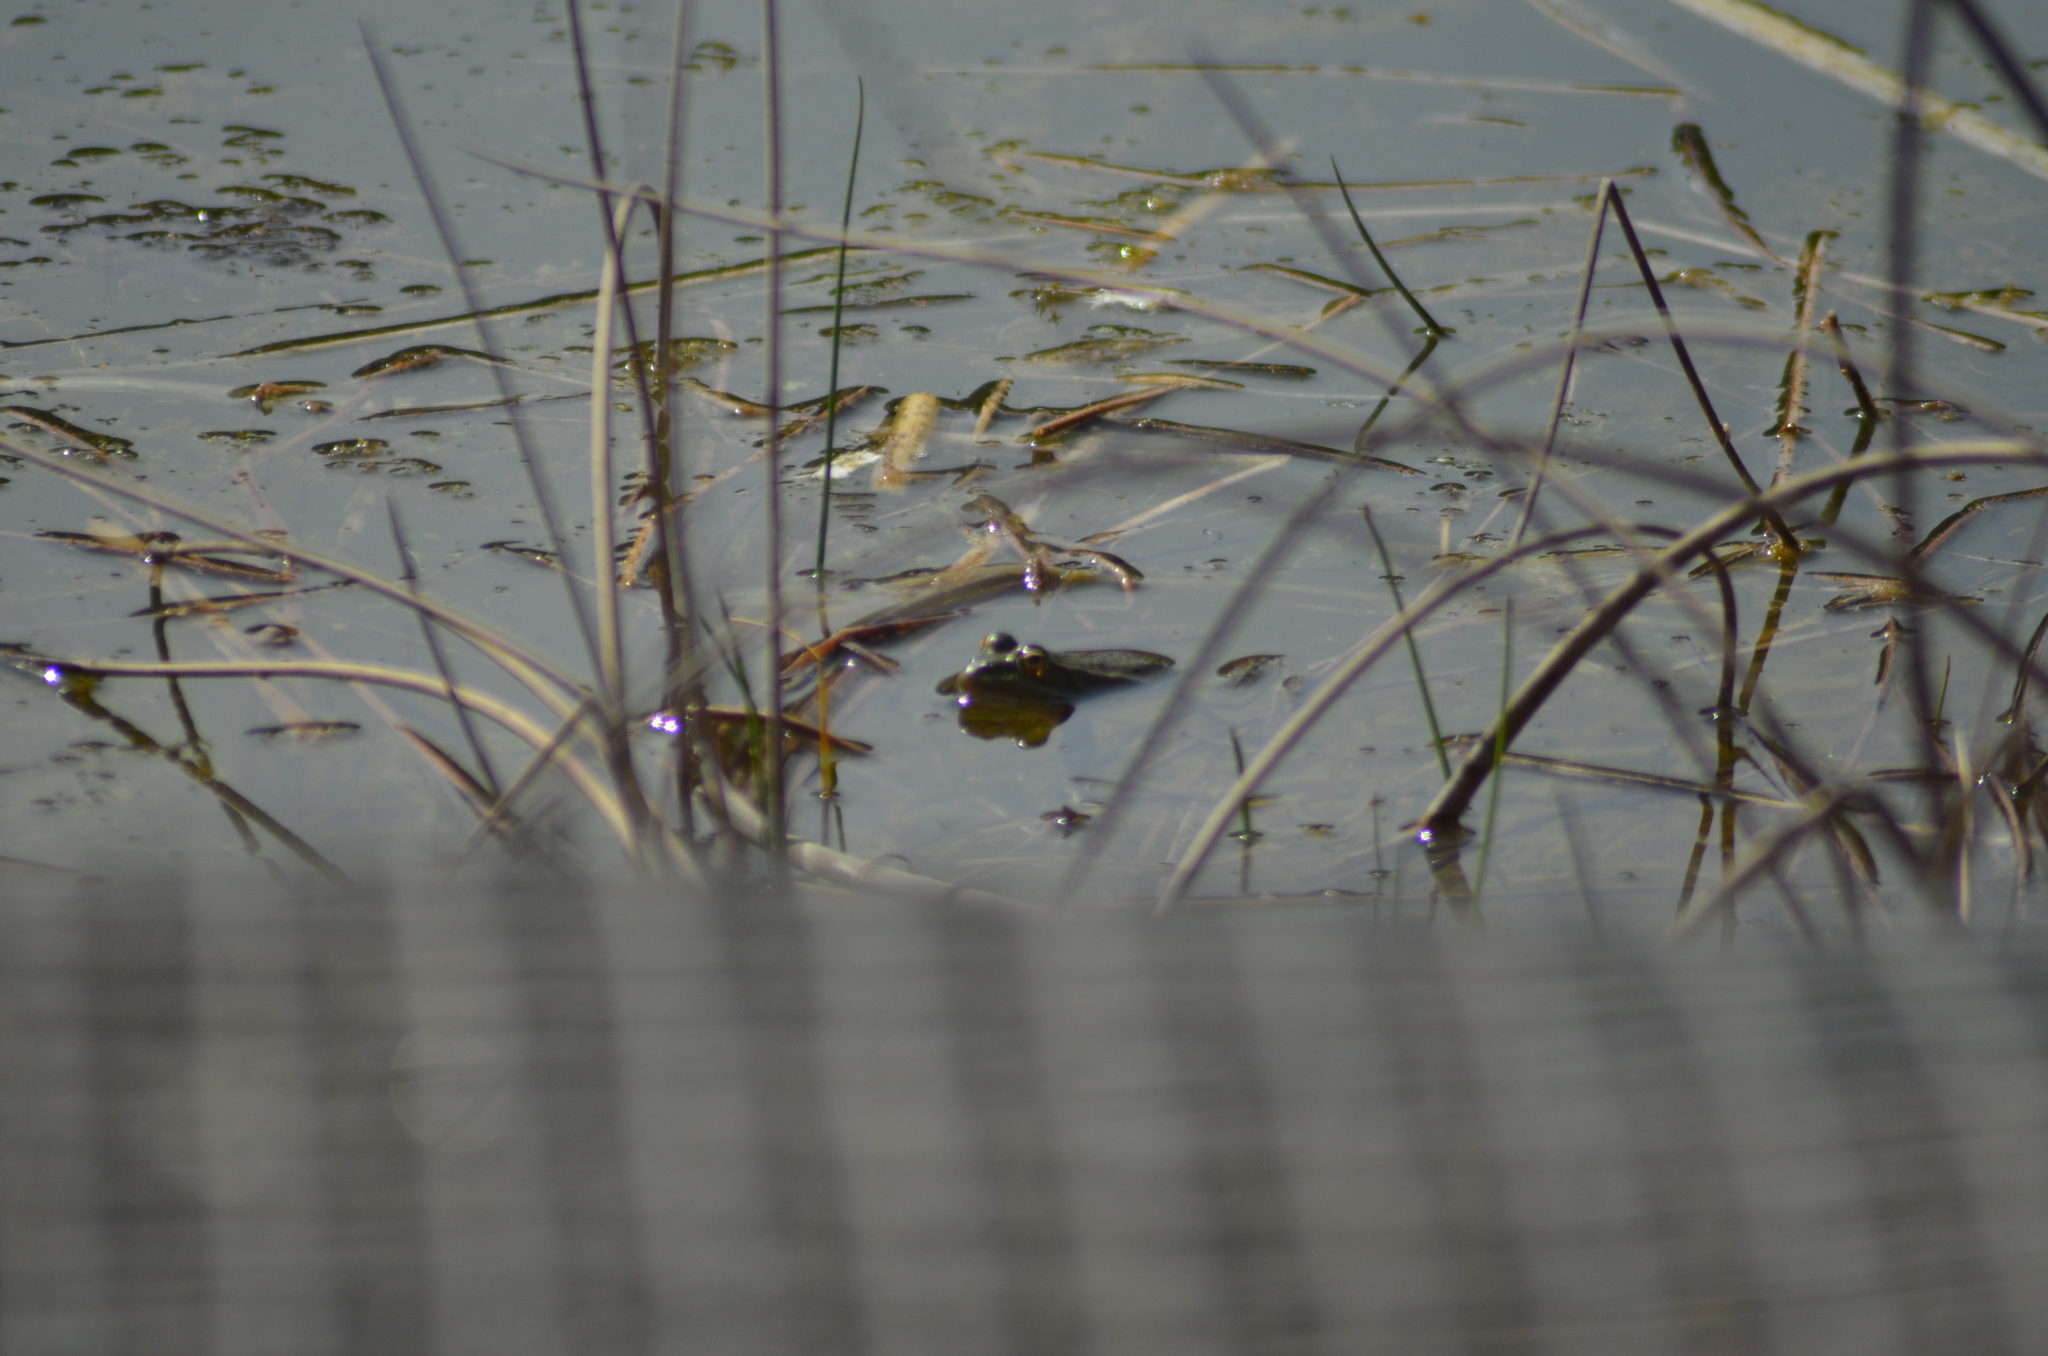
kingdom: Animalia
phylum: Chordata
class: Amphibia
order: Anura
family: Ranidae
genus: Pelophylax
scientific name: Pelophylax
